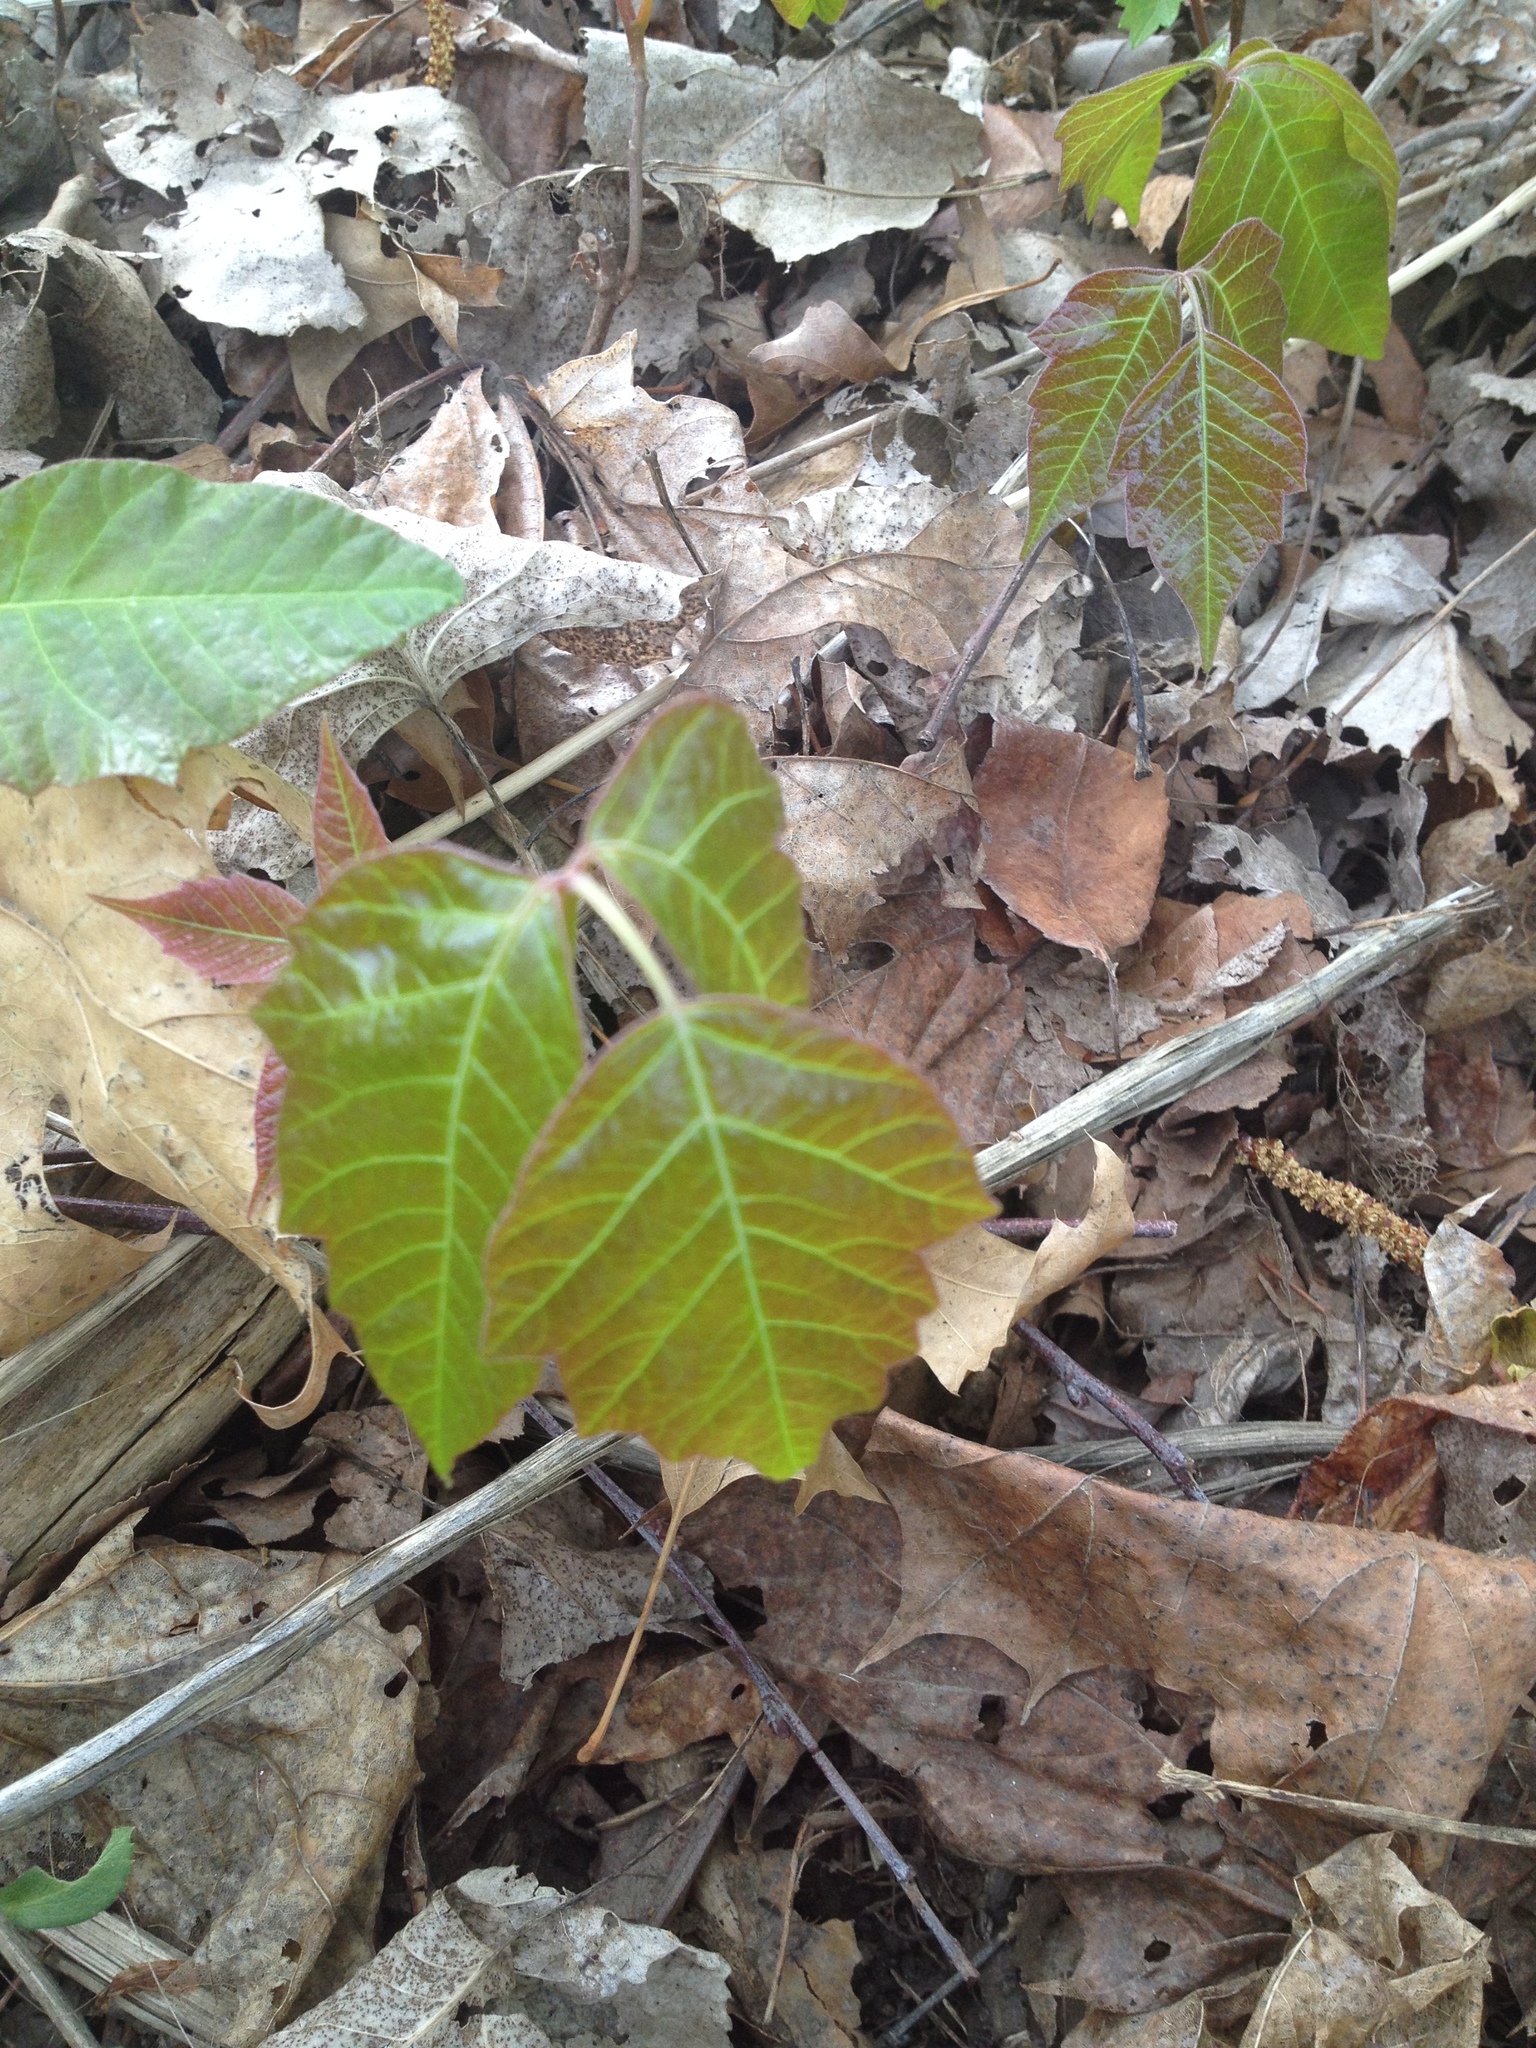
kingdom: Plantae
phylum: Tracheophyta
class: Magnoliopsida
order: Sapindales
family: Anacardiaceae
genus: Toxicodendron
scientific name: Toxicodendron radicans
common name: Poison ivy
